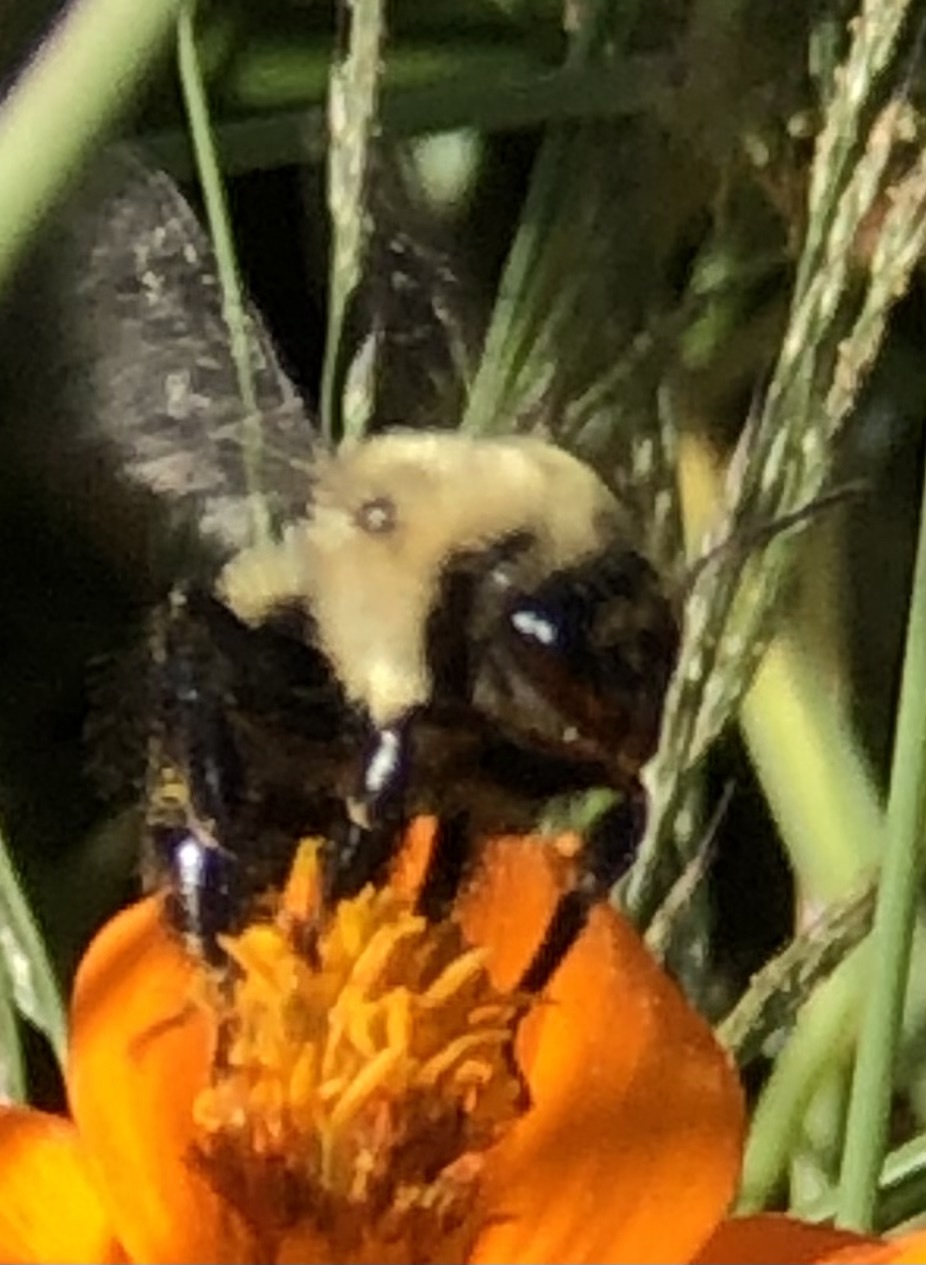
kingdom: Animalia
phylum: Arthropoda
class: Insecta
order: Hymenoptera
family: Apidae
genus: Bombus
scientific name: Bombus impatiens
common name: Common eastern bumble bee
